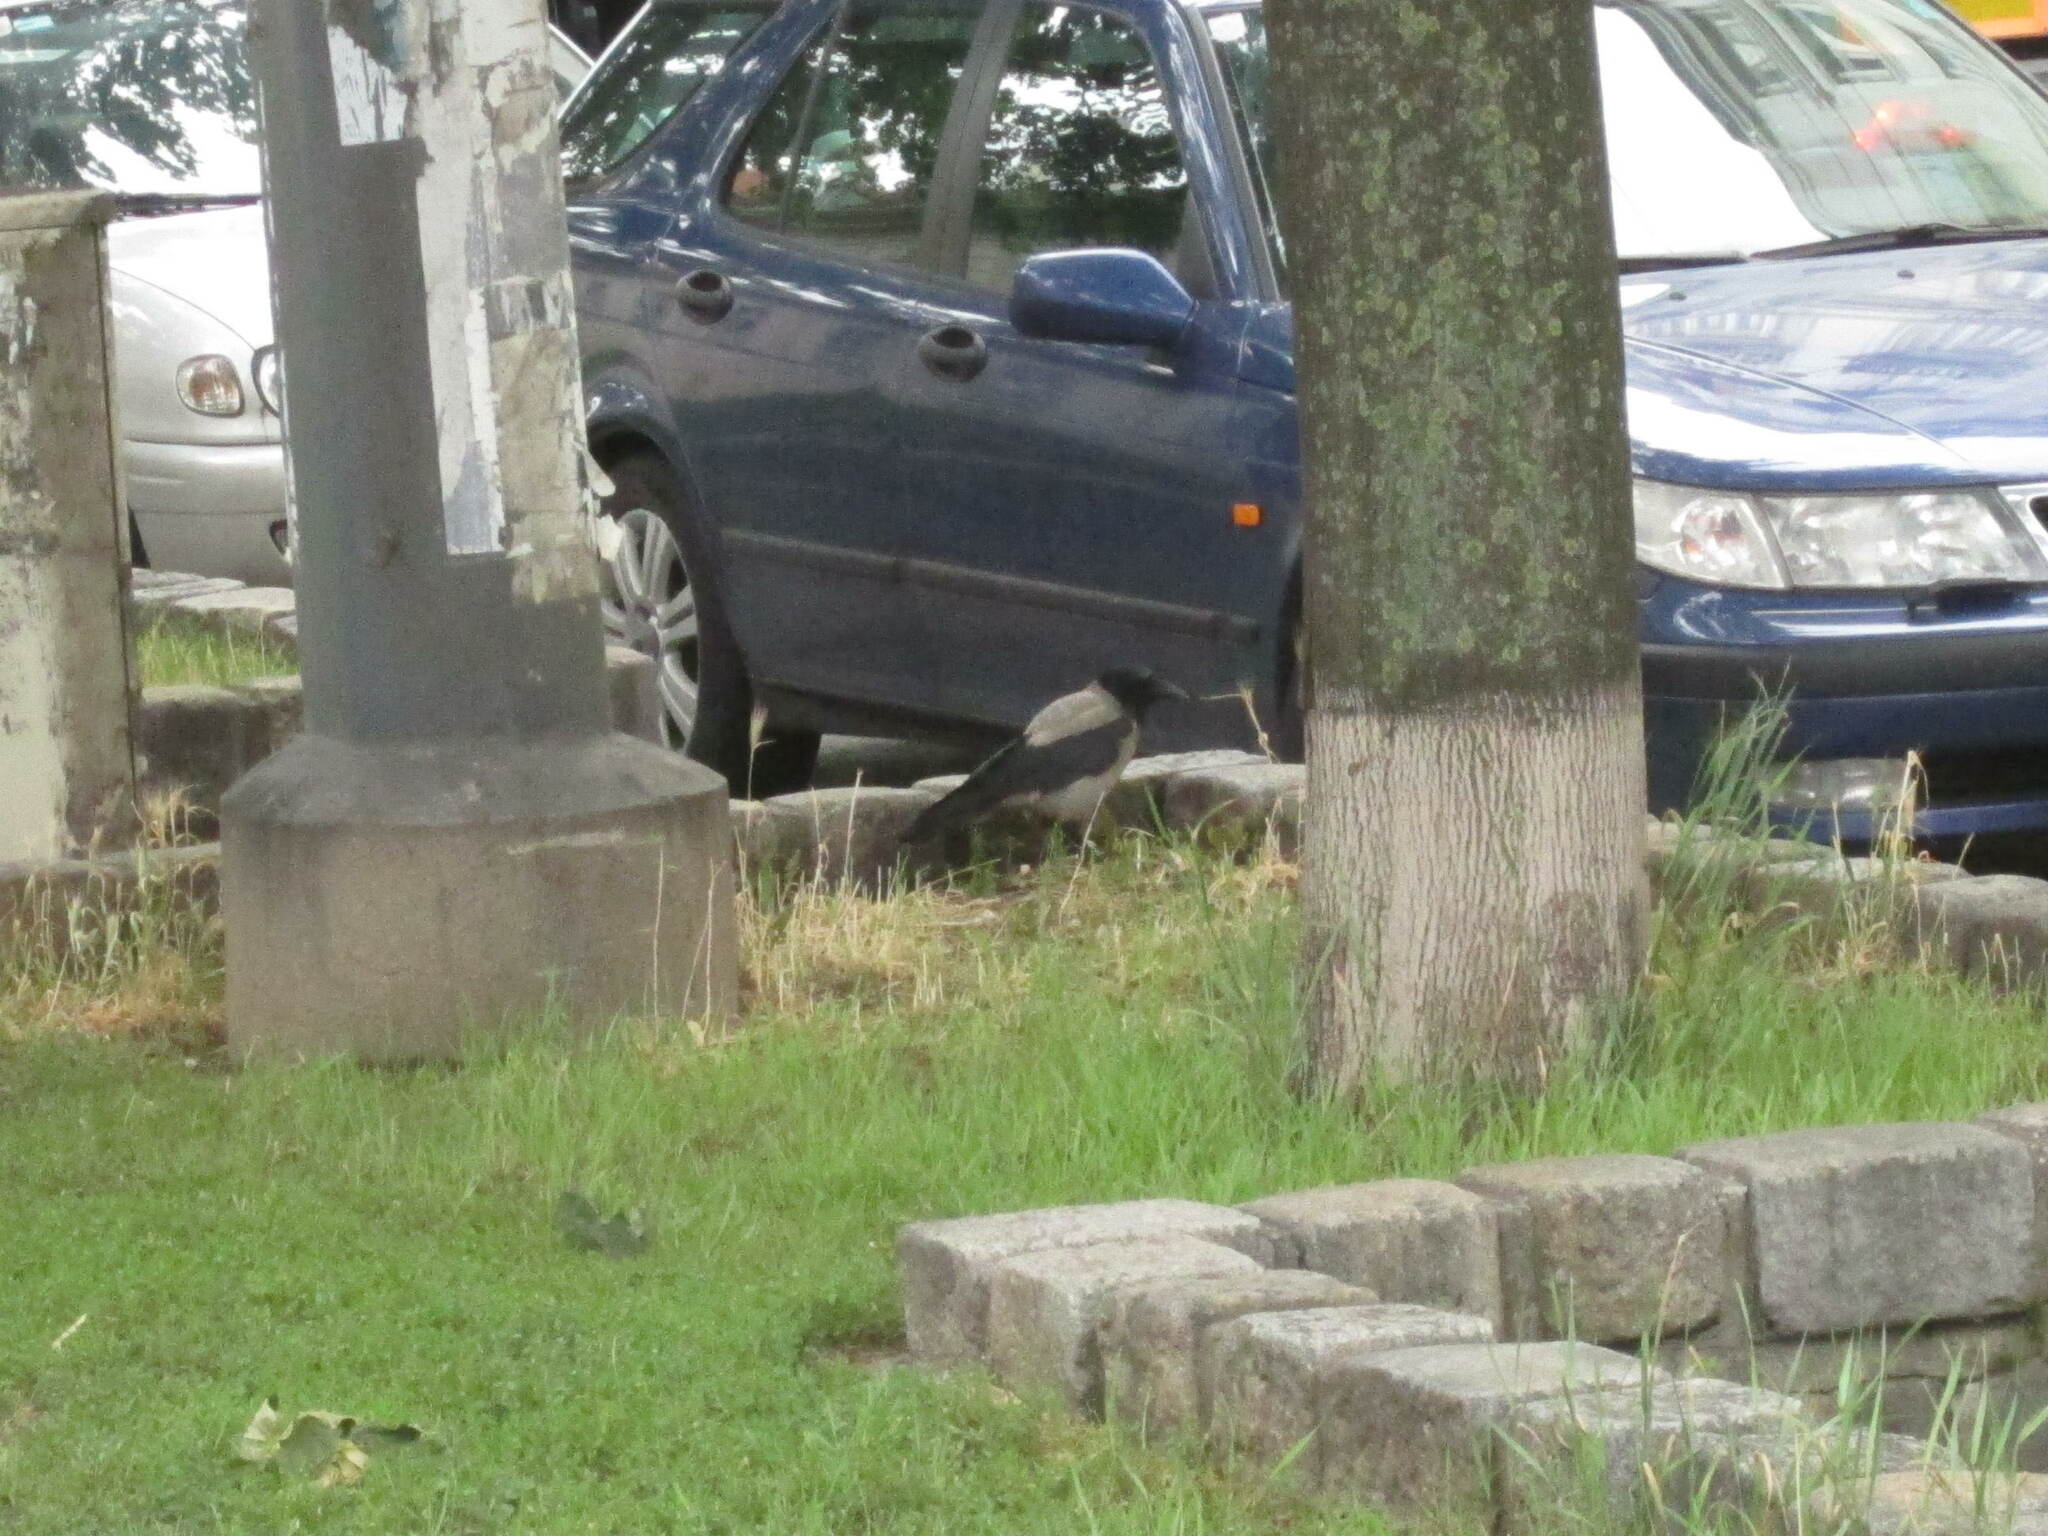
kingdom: Animalia
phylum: Chordata
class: Aves
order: Passeriformes
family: Corvidae
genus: Corvus
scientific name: Corvus cornix
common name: Hooded crow
